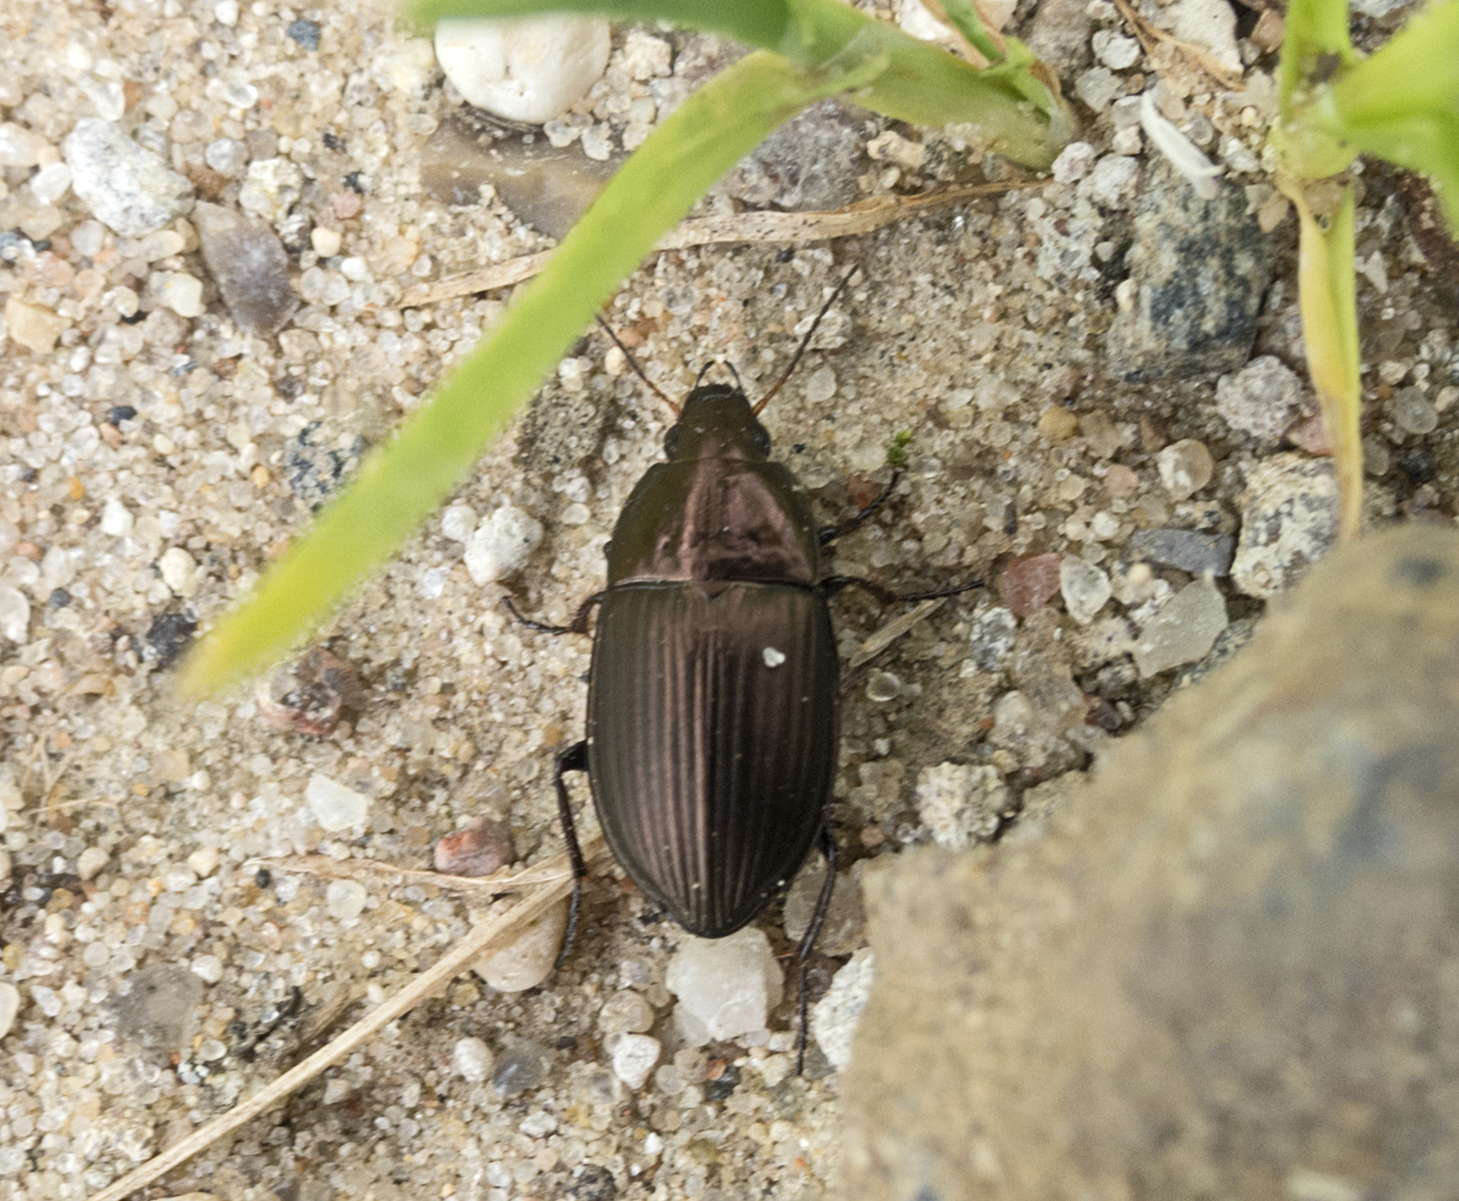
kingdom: Animalia
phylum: Arthropoda
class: Insecta
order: Coleoptera
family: Carabidae
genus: Amara
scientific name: Amara eurynota
